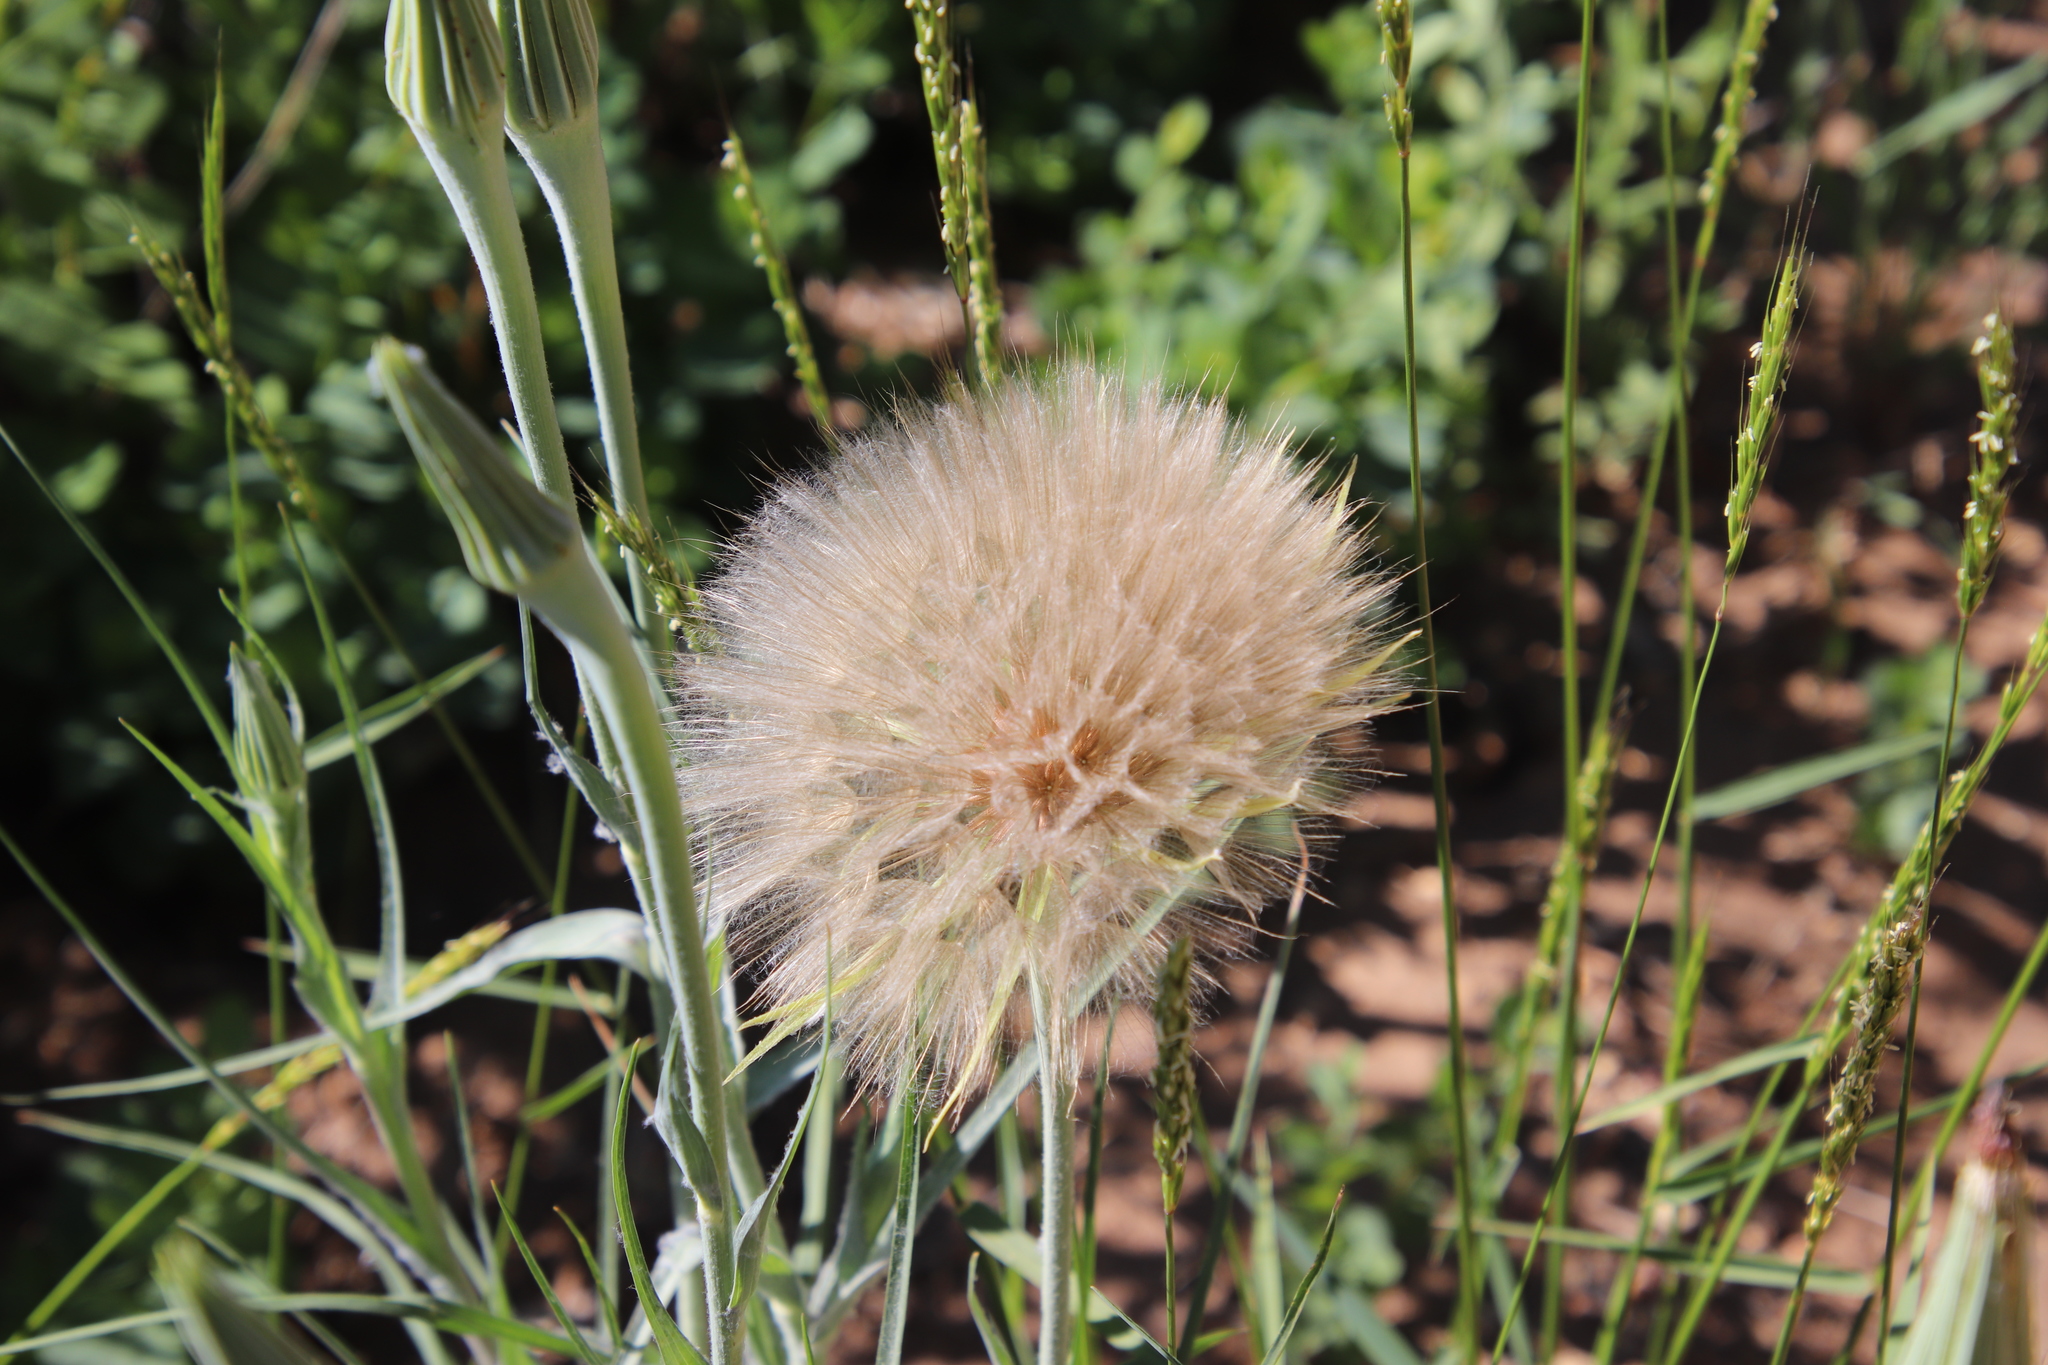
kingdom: Plantae
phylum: Tracheophyta
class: Magnoliopsida
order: Asterales
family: Asteraceae
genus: Tragopogon
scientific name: Tragopogon dubius
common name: Yellow salsify
